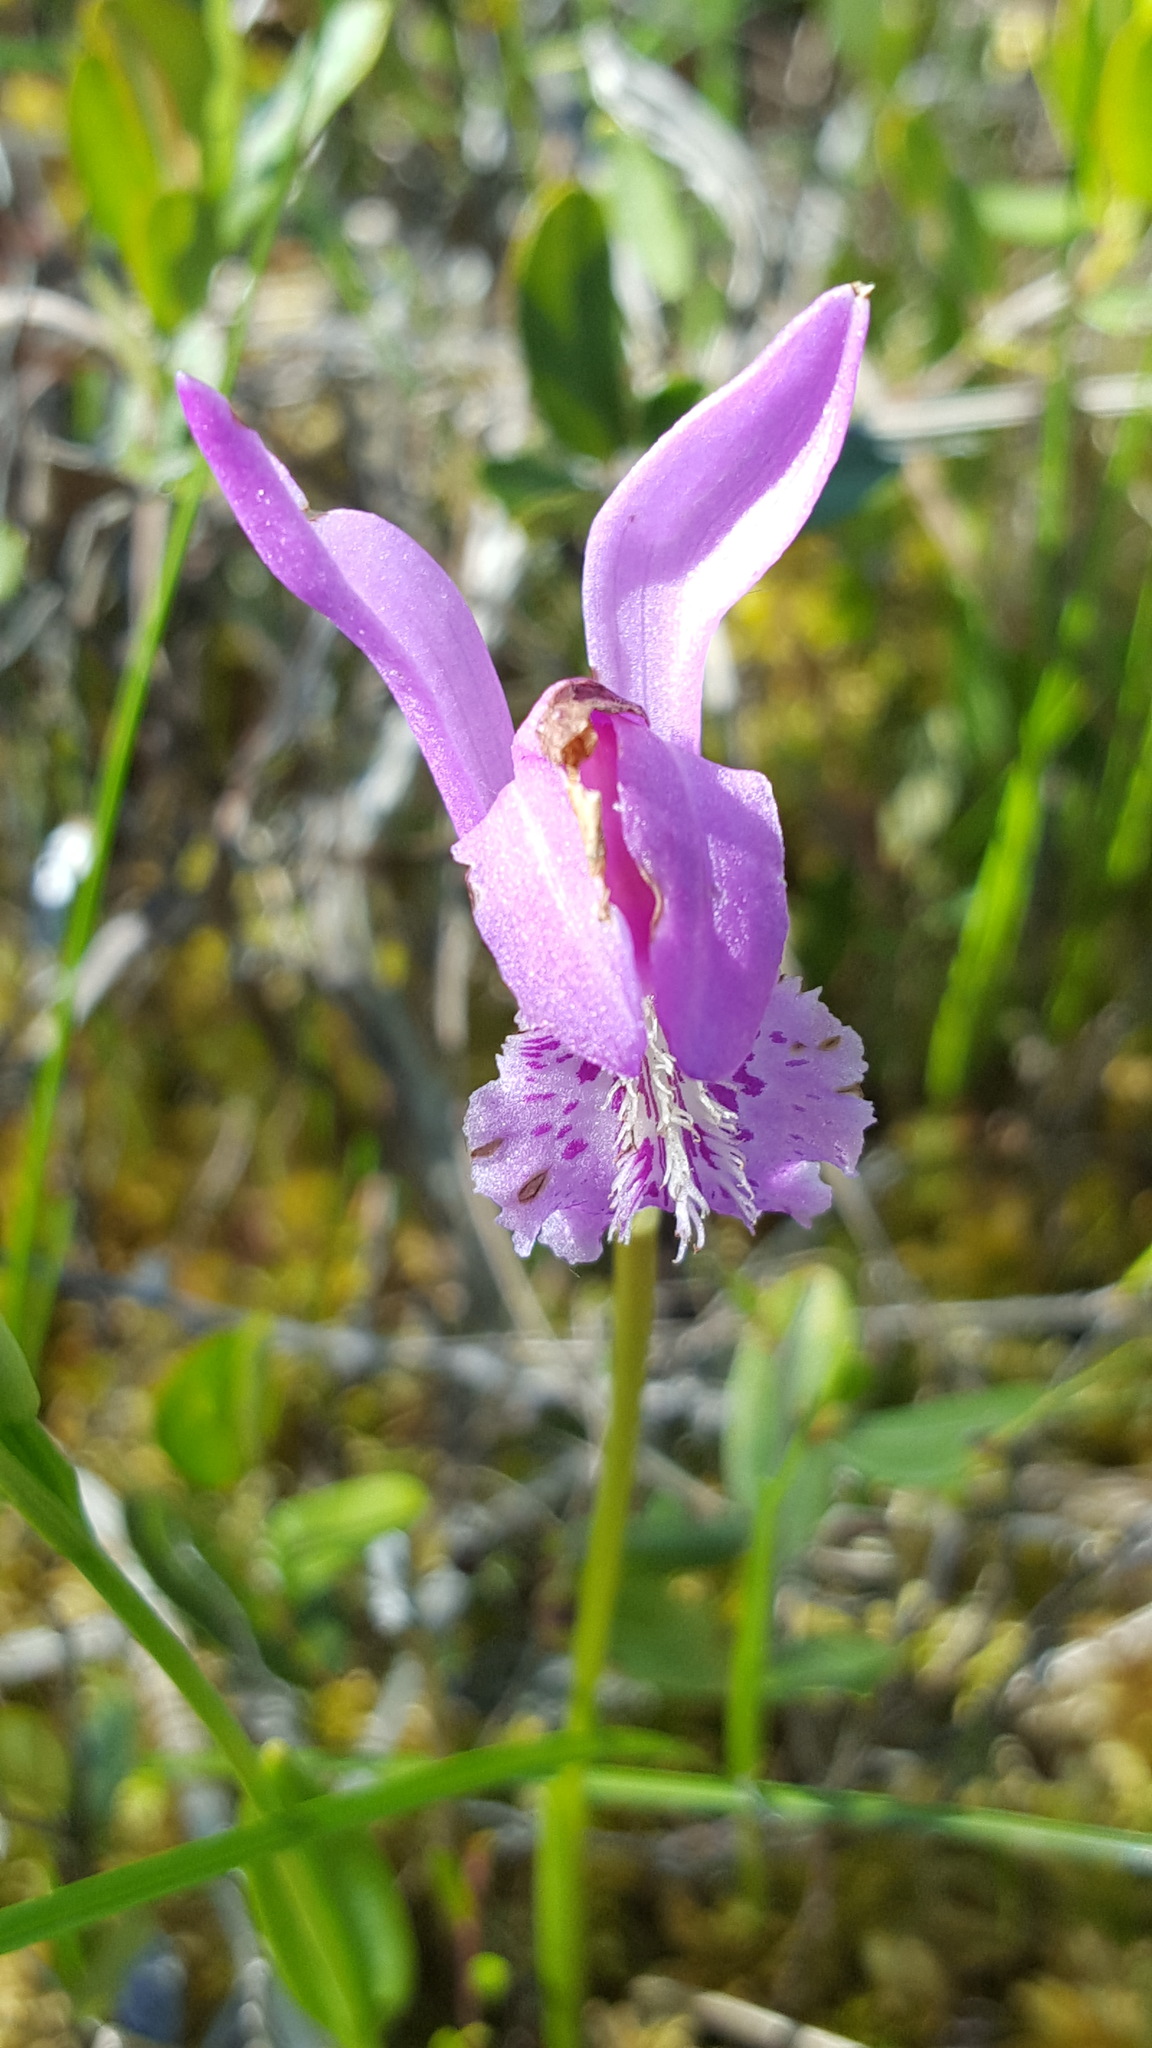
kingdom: Plantae
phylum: Tracheophyta
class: Liliopsida
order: Asparagales
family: Orchidaceae
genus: Arethusa
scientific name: Arethusa bulbosa
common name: Arethusa
